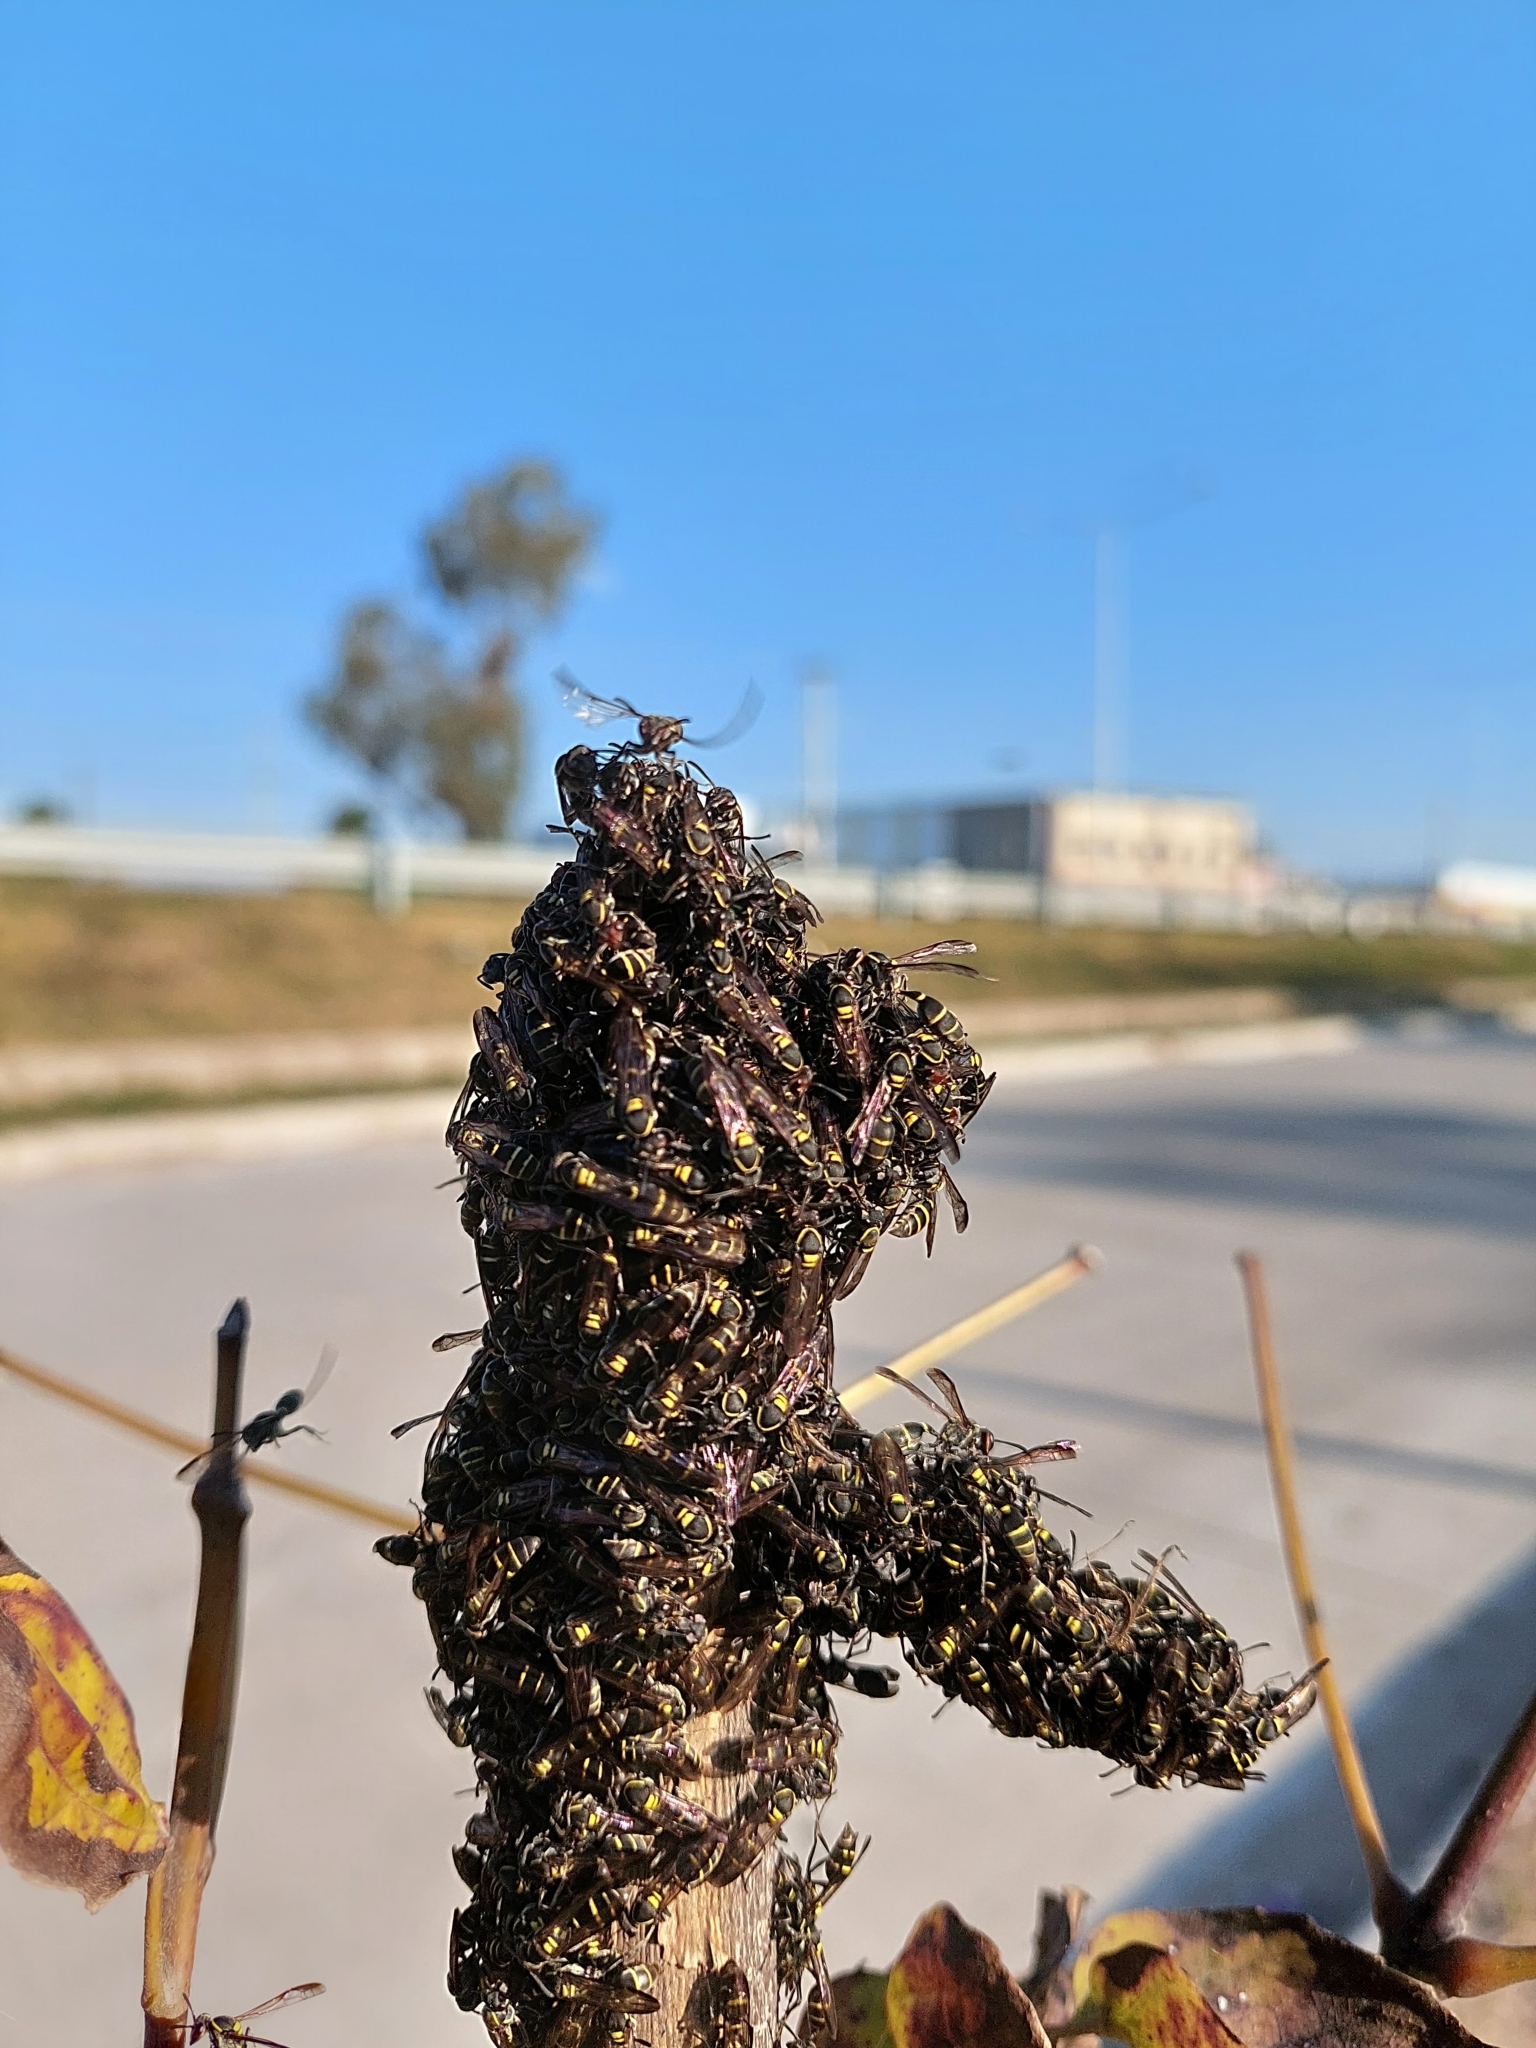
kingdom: Animalia
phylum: Arthropoda
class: Insecta
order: Hymenoptera
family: Eumenidae
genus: Polybia
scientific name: Polybia ruficeps
